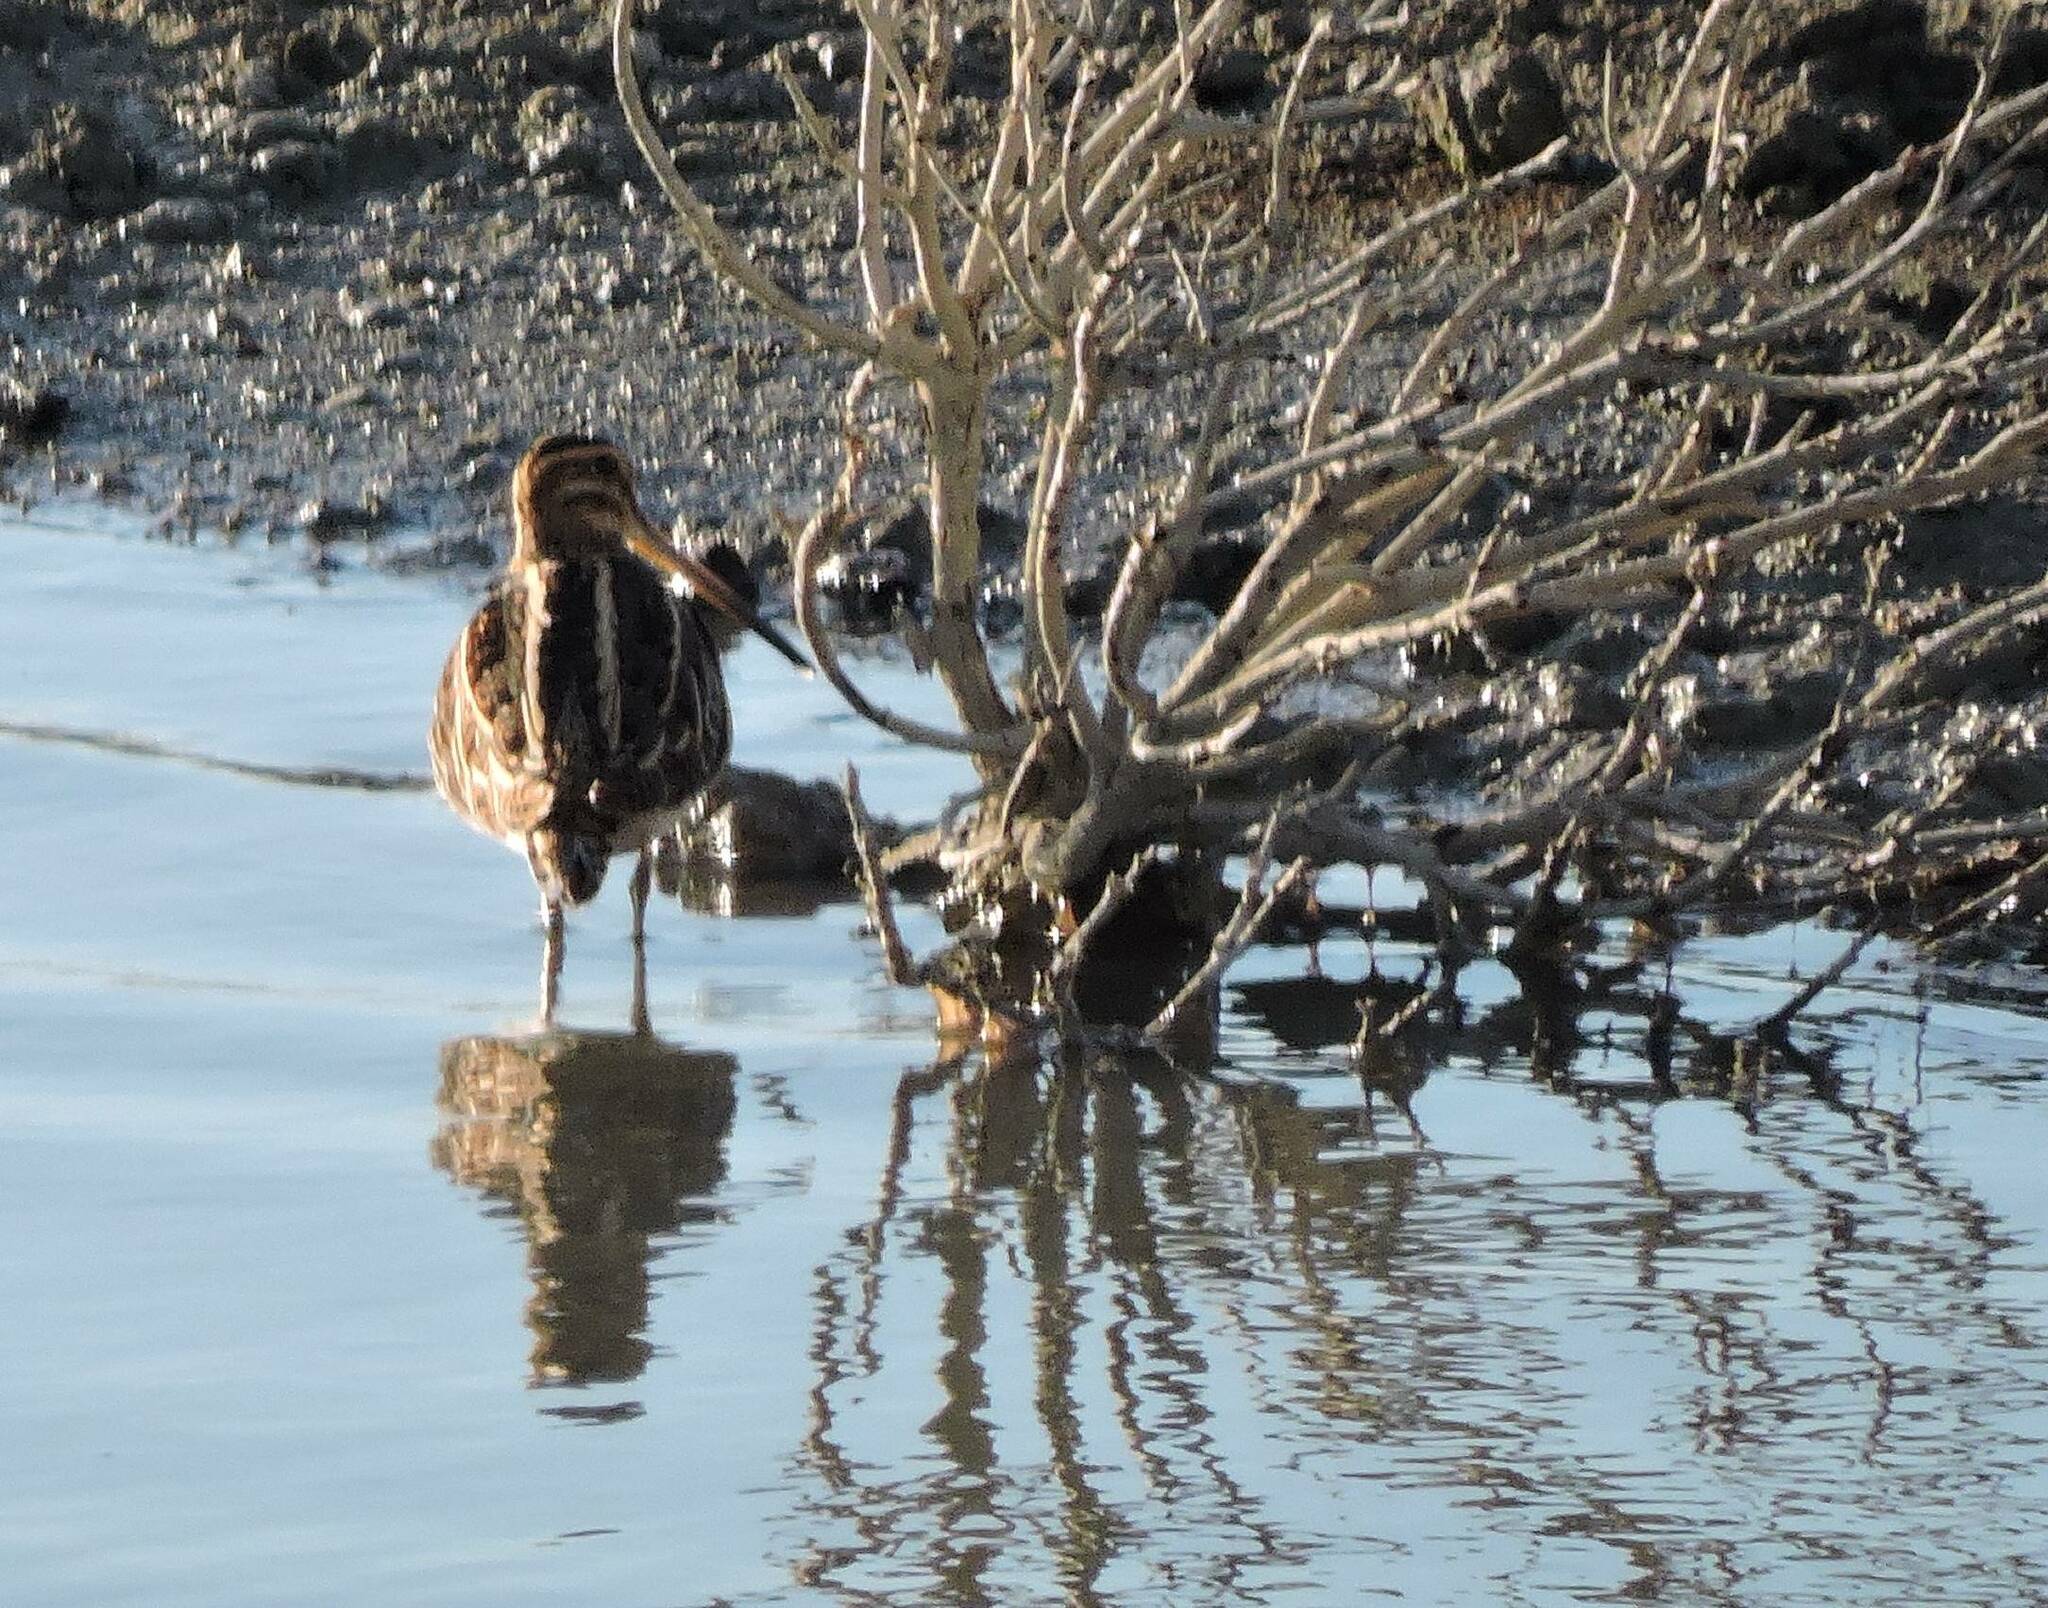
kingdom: Animalia
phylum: Chordata
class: Aves
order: Charadriiformes
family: Scolopacidae
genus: Gallinago
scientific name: Gallinago gallinago
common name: Common snipe
